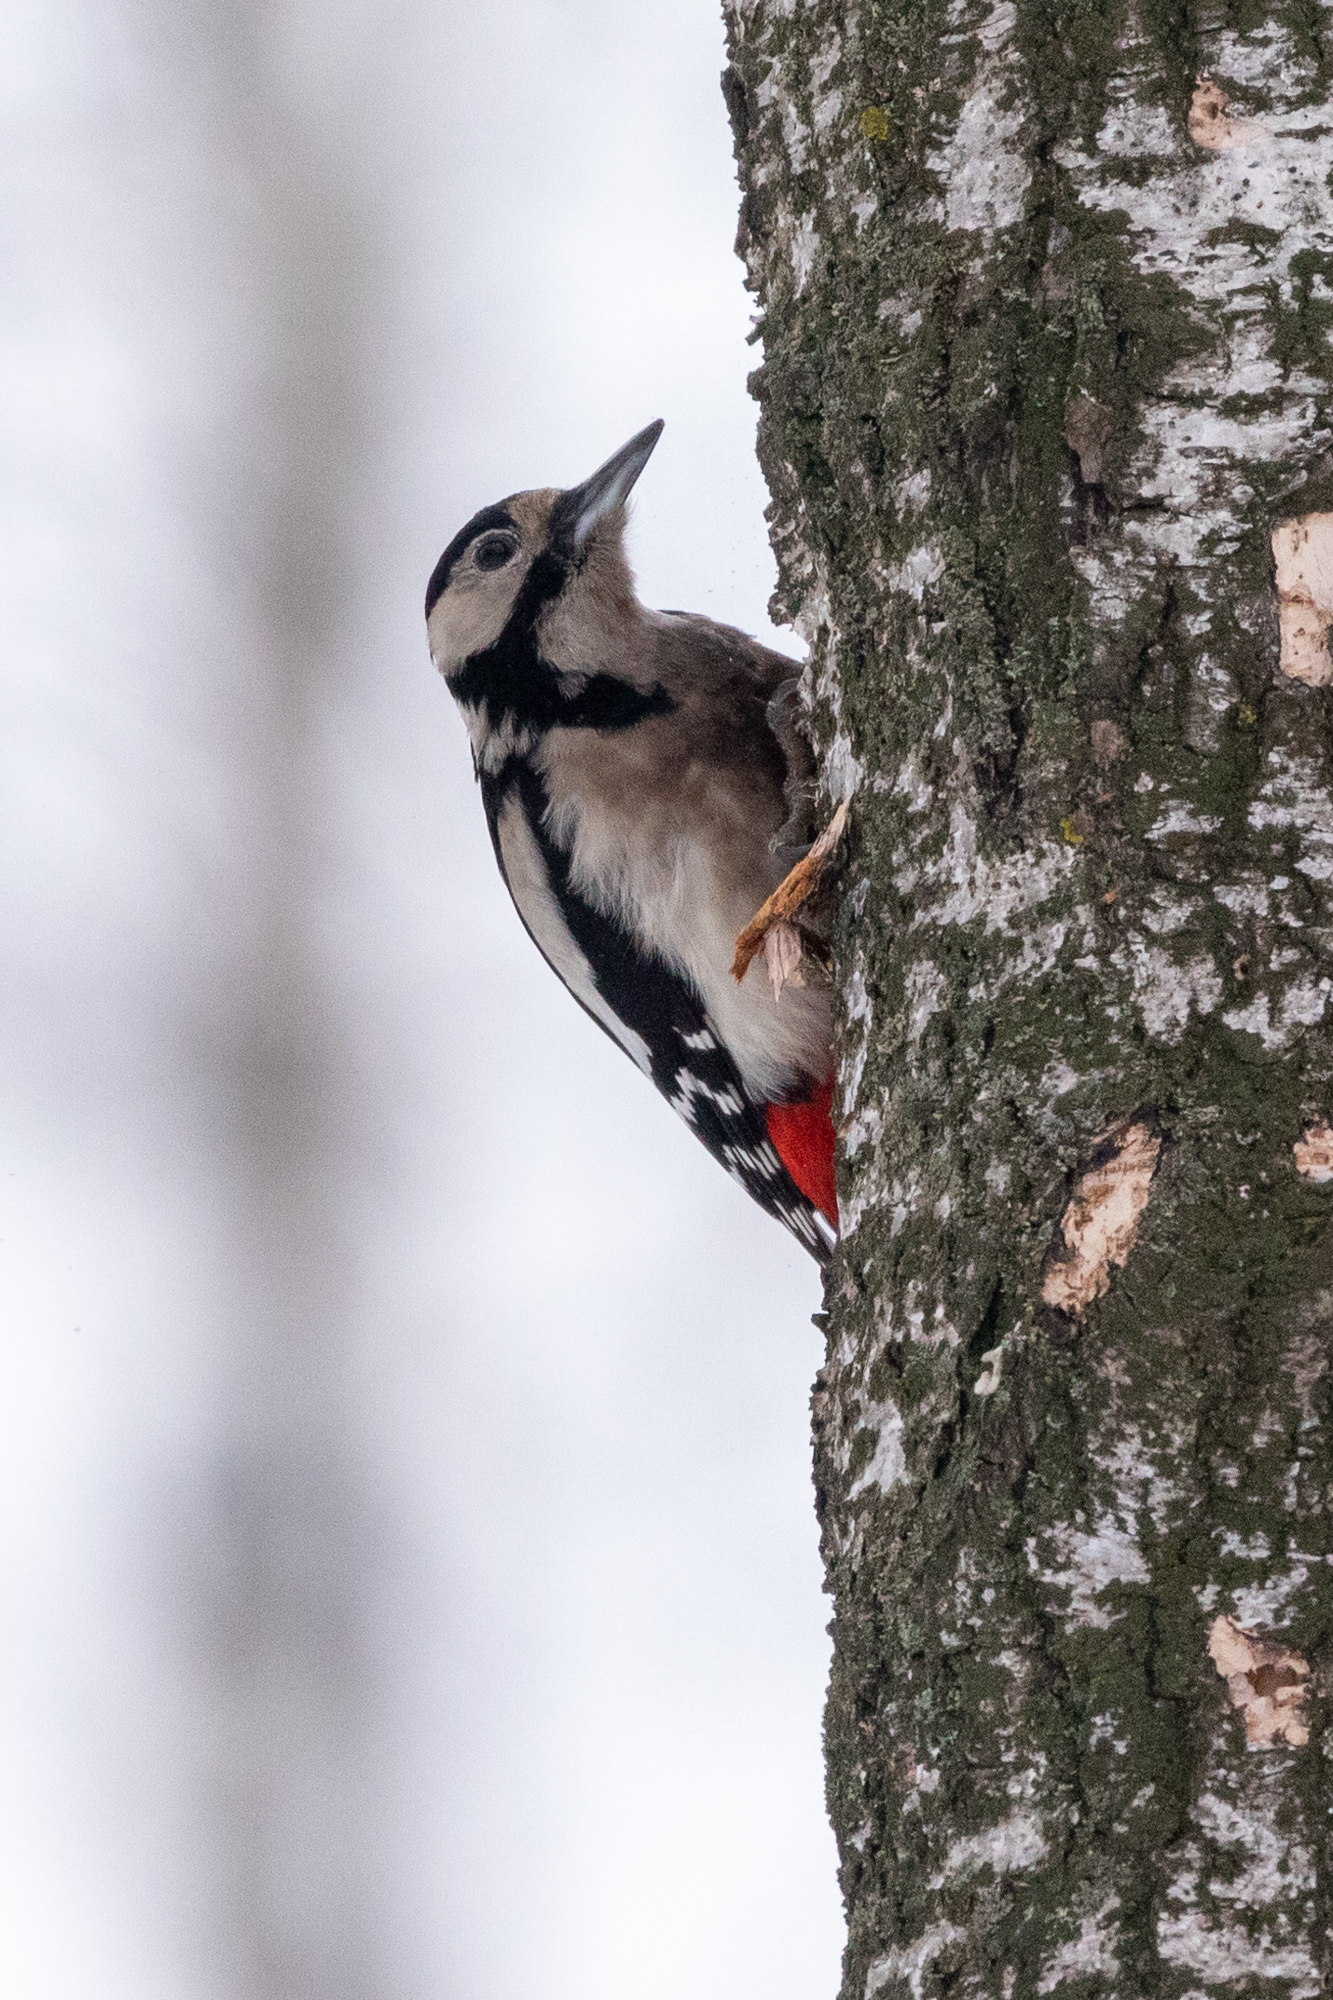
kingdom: Animalia
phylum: Chordata
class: Aves
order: Piciformes
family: Picidae
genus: Dendrocopos
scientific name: Dendrocopos major
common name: Great spotted woodpecker
